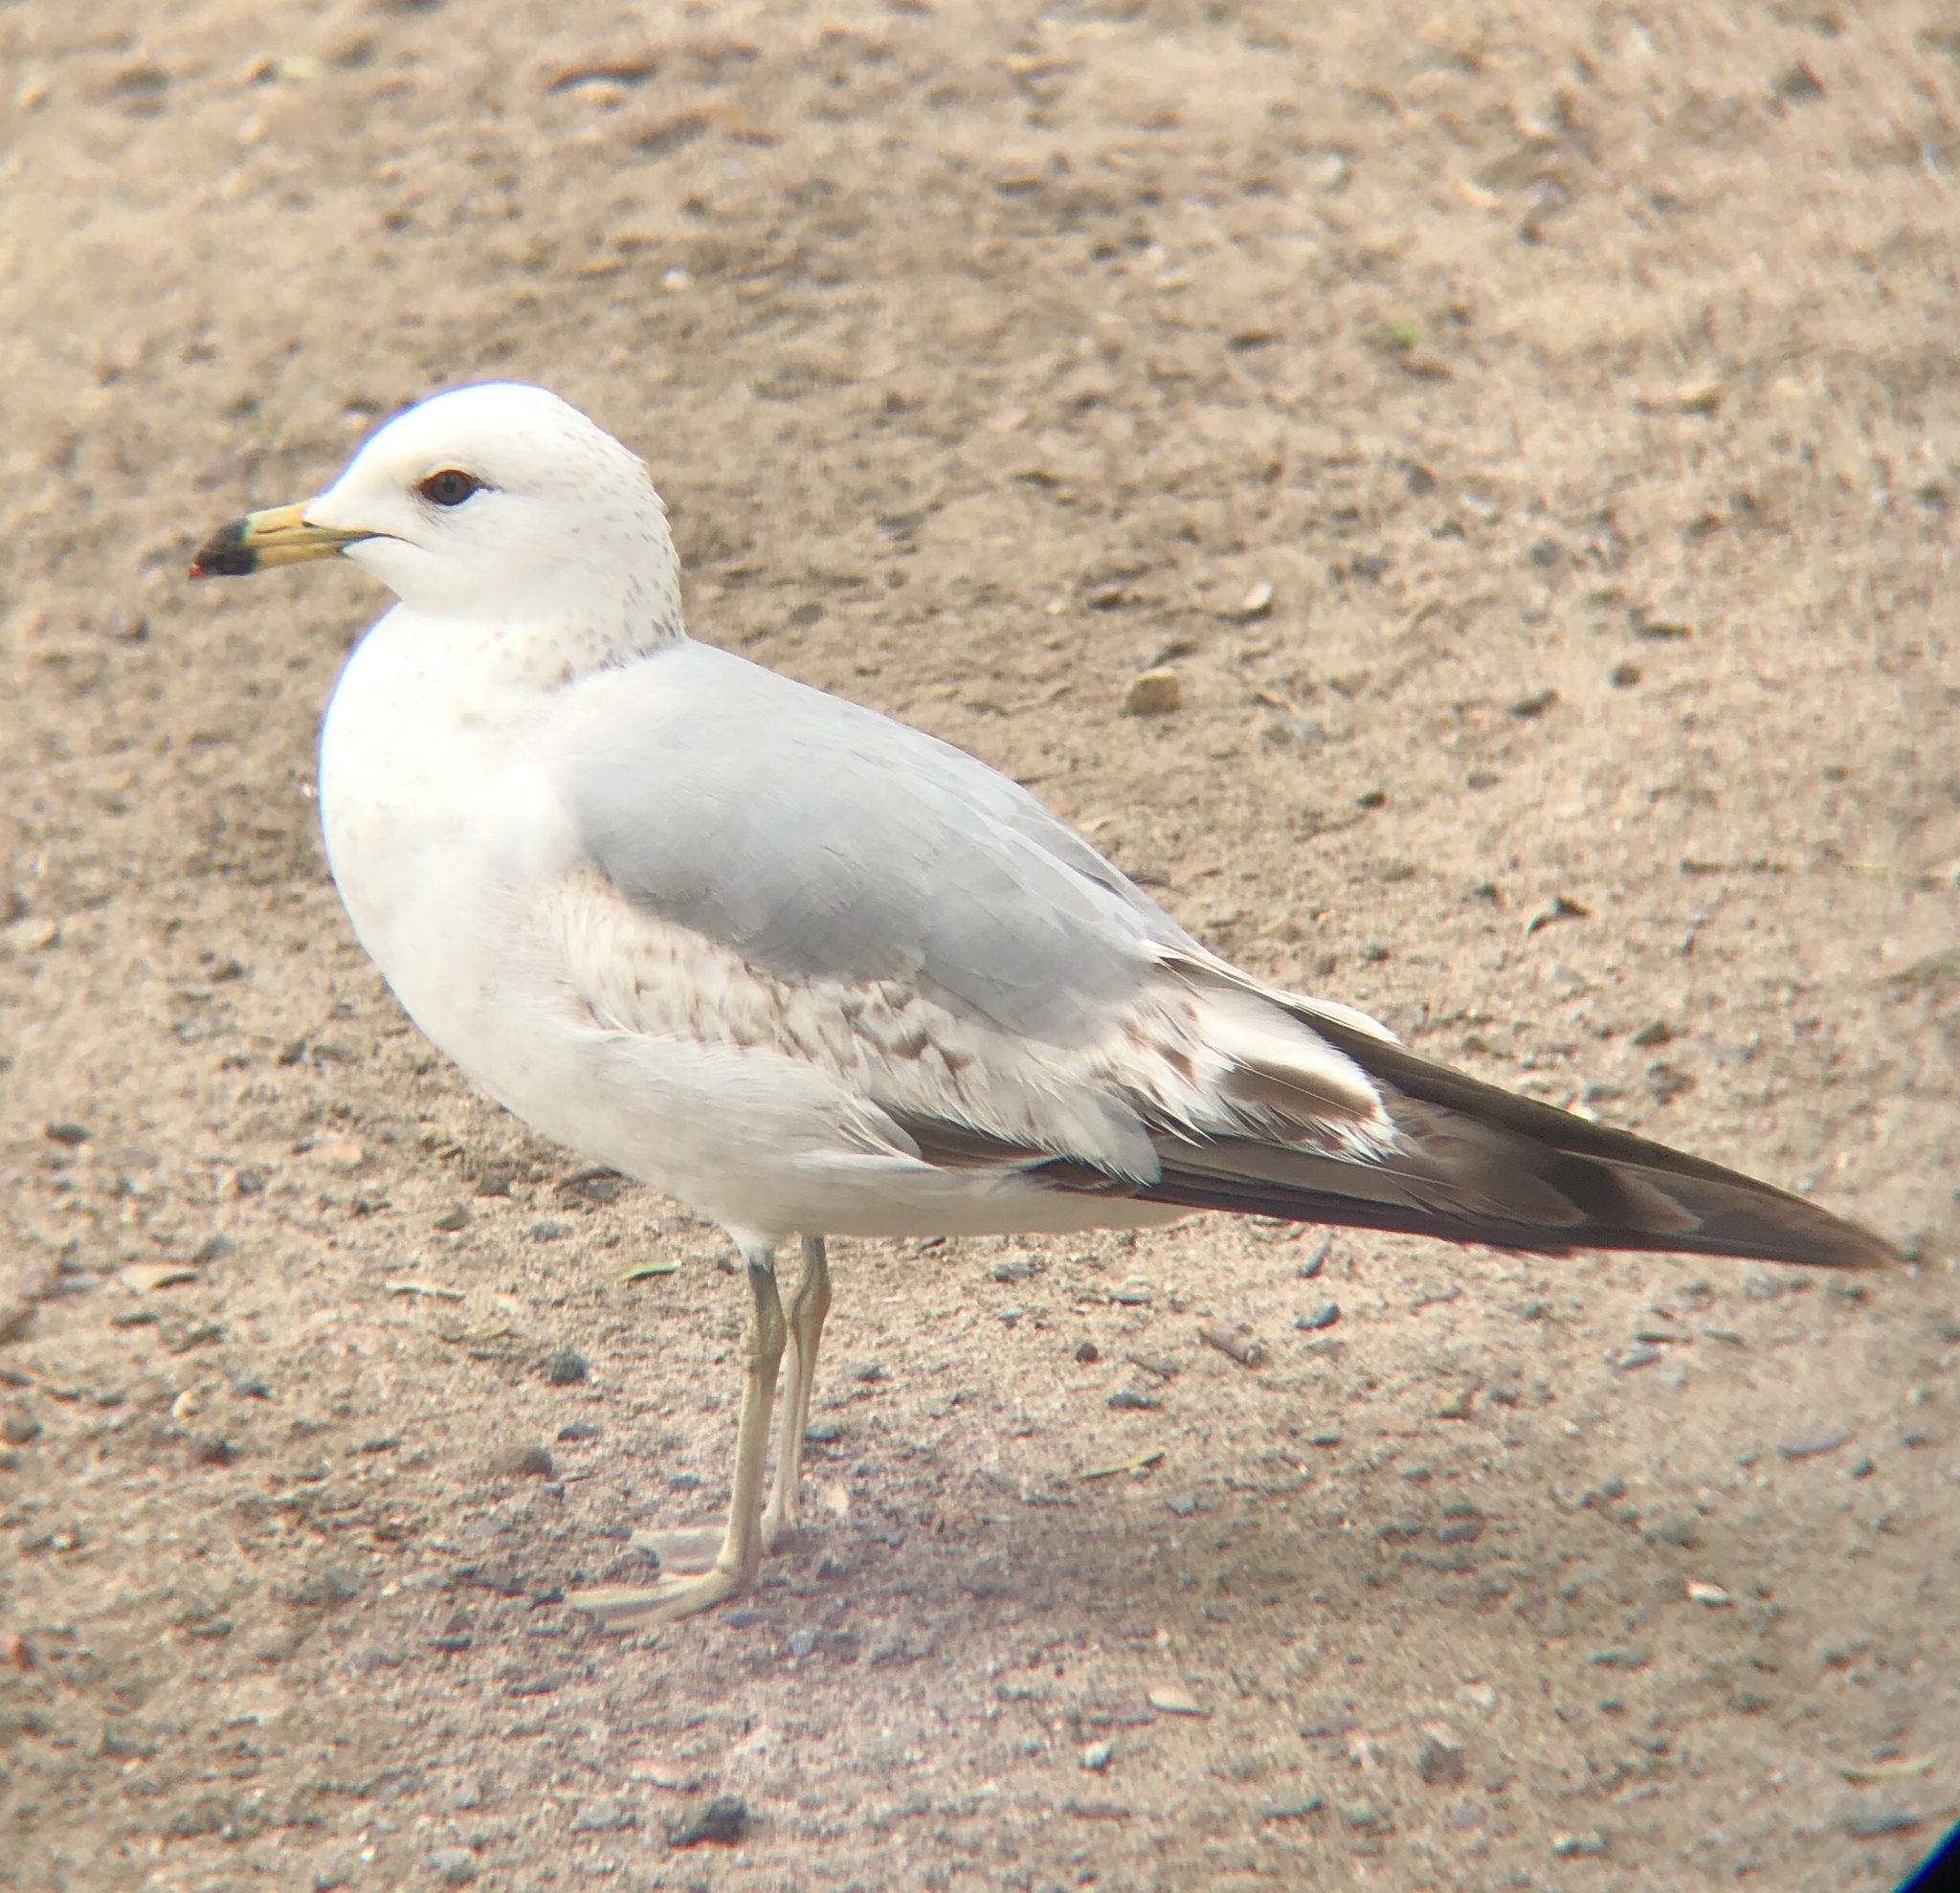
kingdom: Animalia
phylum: Chordata
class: Aves
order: Charadriiformes
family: Laridae
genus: Larus
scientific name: Larus delawarensis
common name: Ring-billed gull
